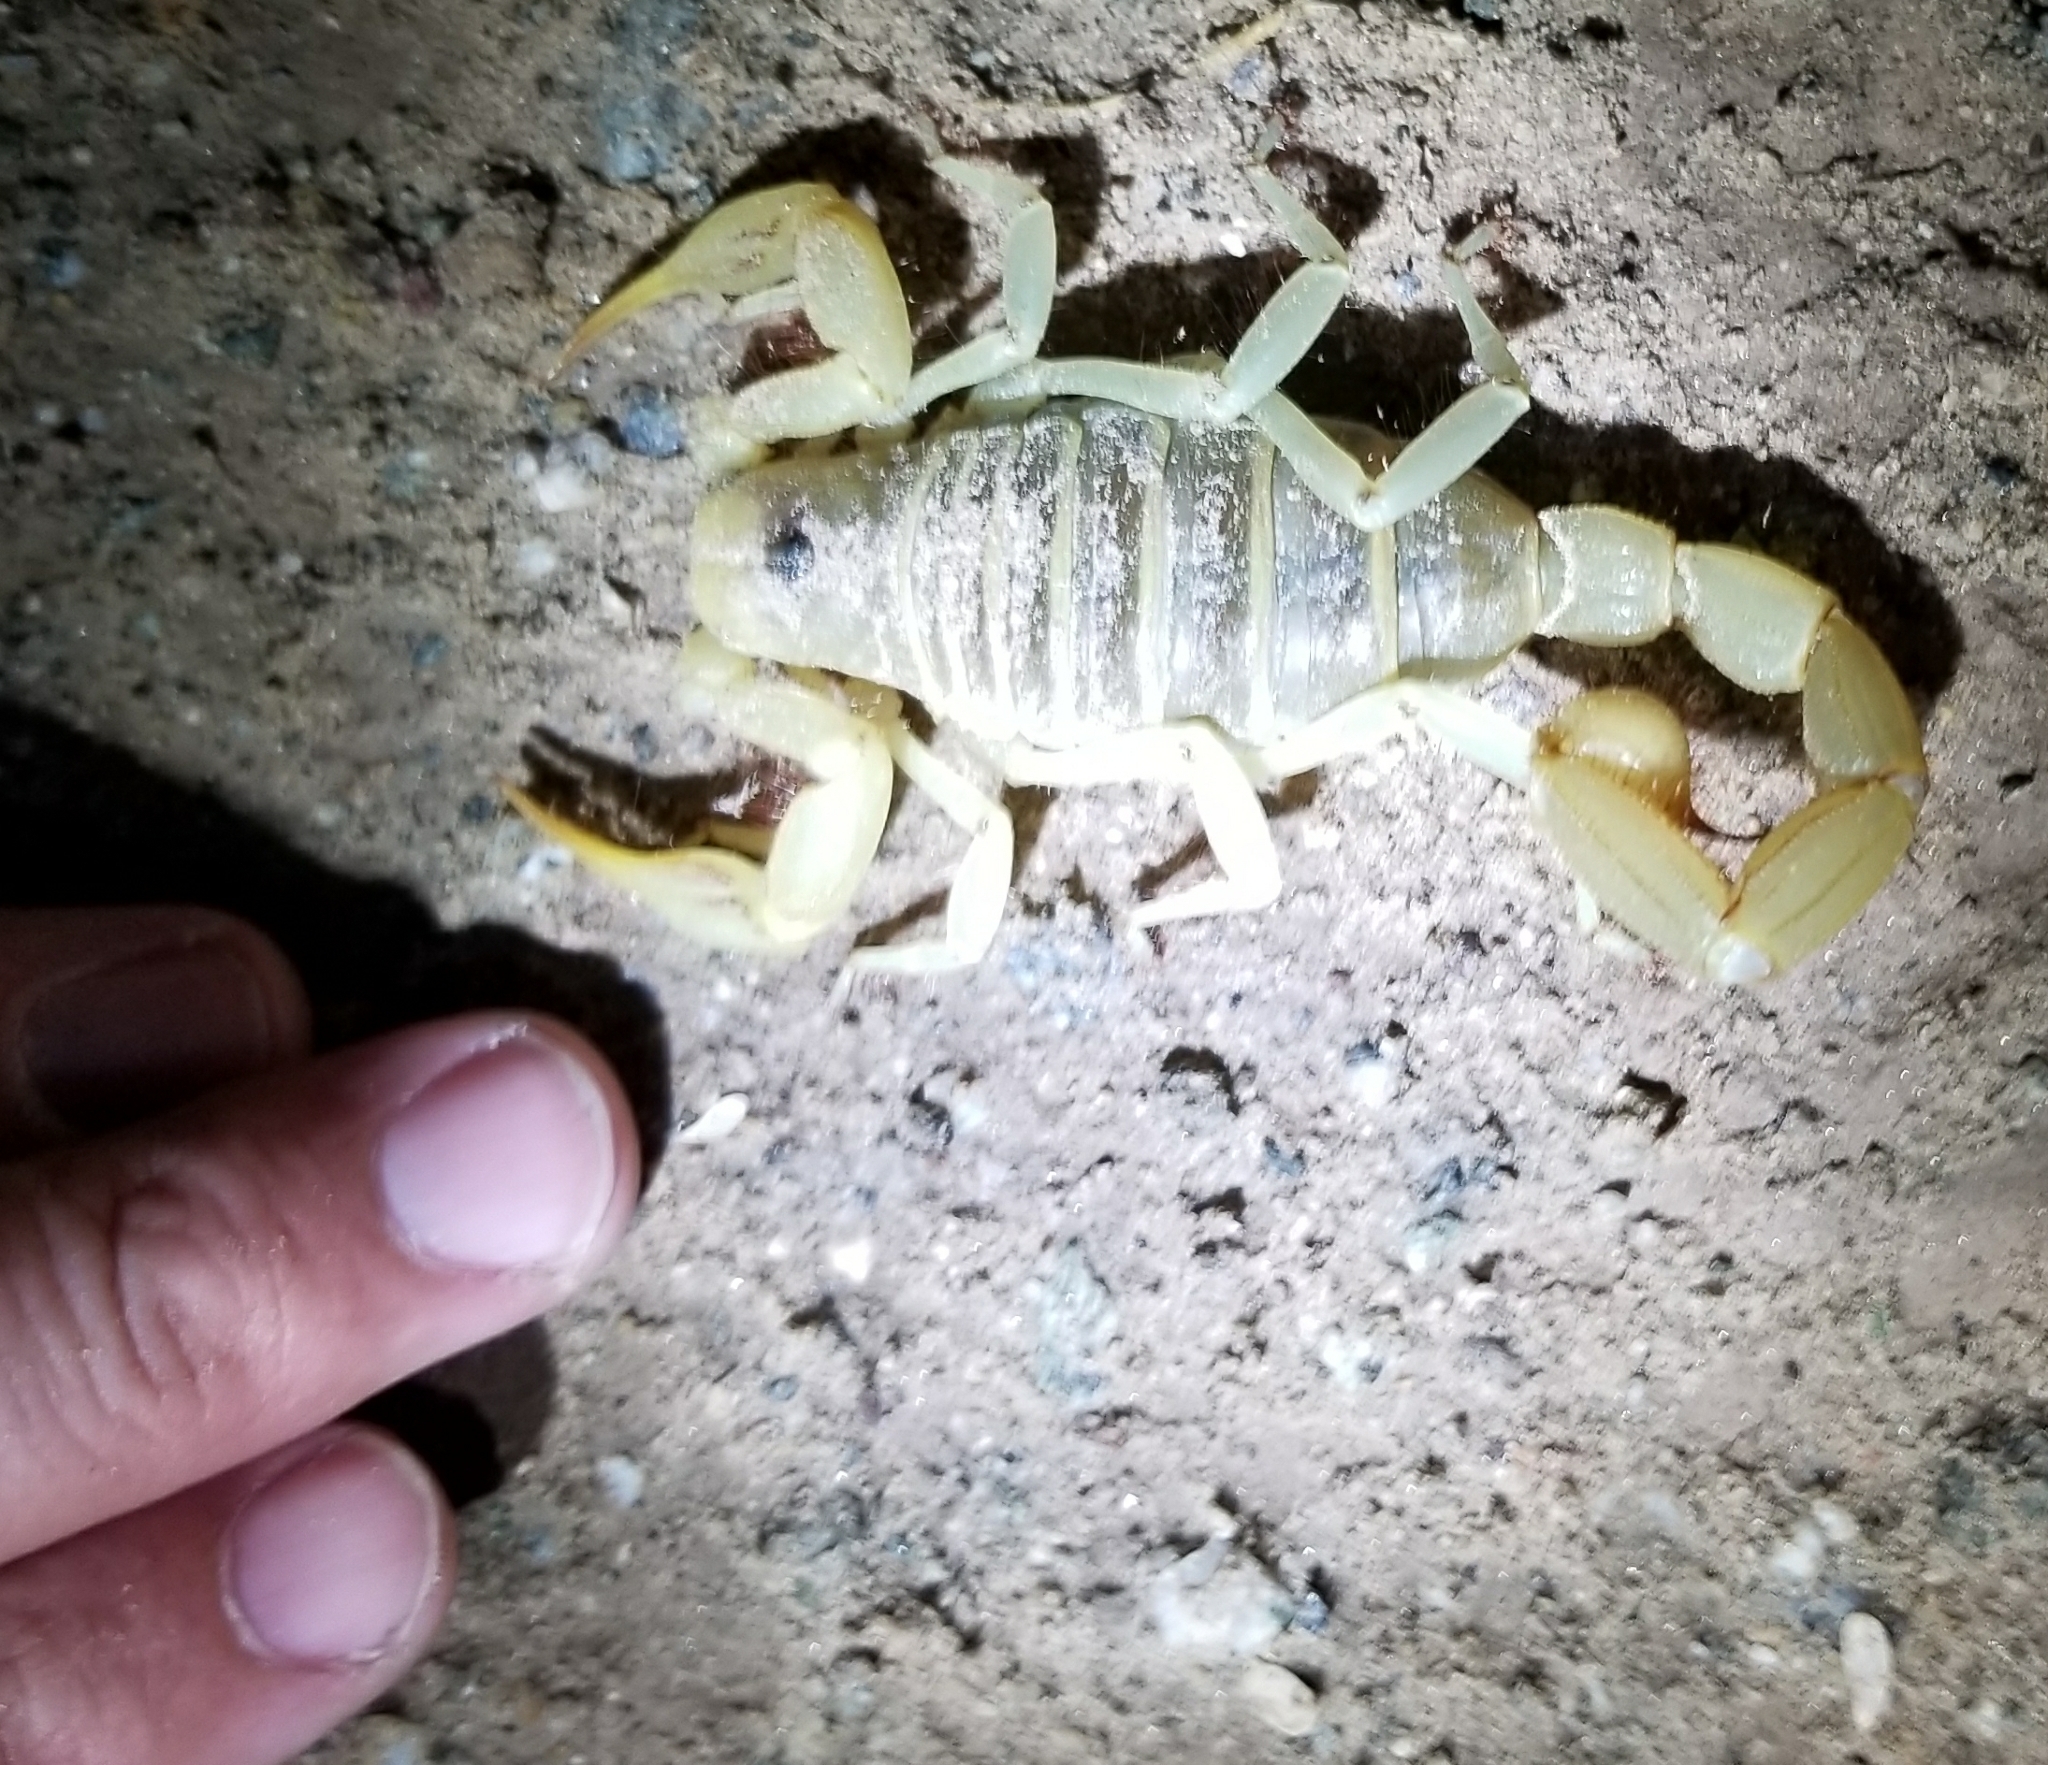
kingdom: Animalia
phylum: Arthropoda
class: Arachnida
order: Scorpiones
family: Hadruridae
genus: Hadrurus
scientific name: Hadrurus arizonensis
